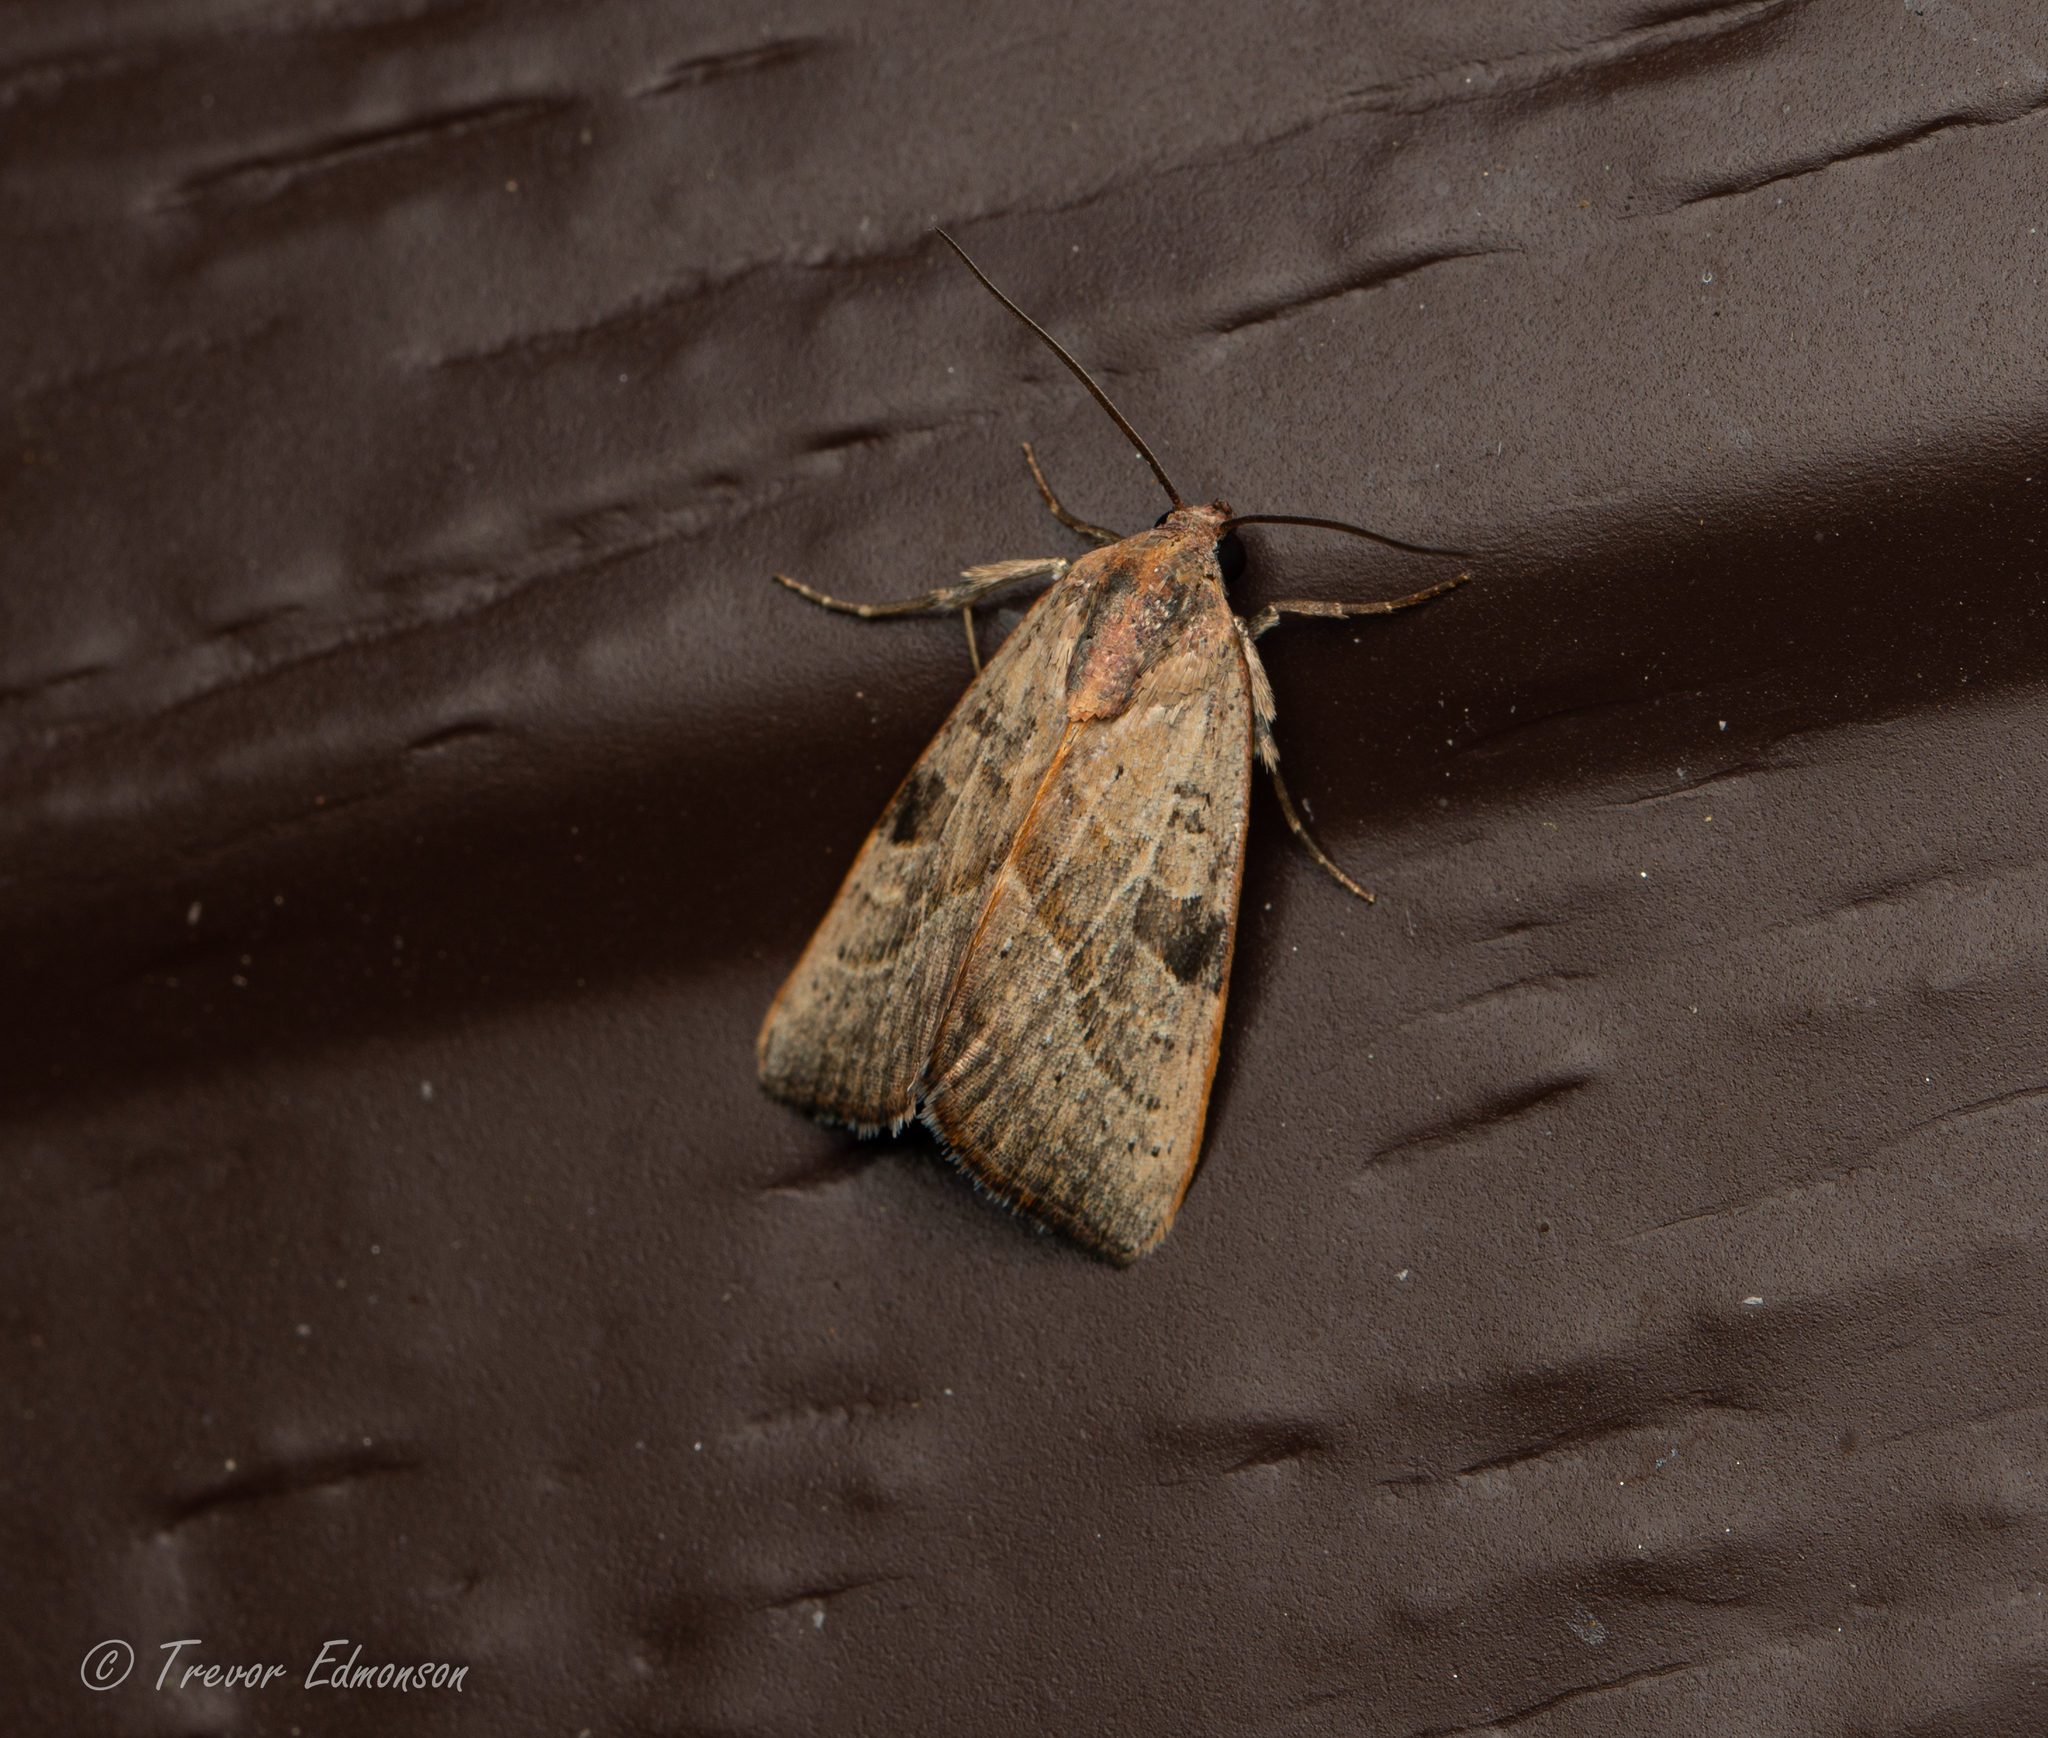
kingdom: Animalia
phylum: Arthropoda
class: Insecta
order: Lepidoptera
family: Noctuidae
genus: Galgula
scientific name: Galgula partita
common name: Wedgeling
